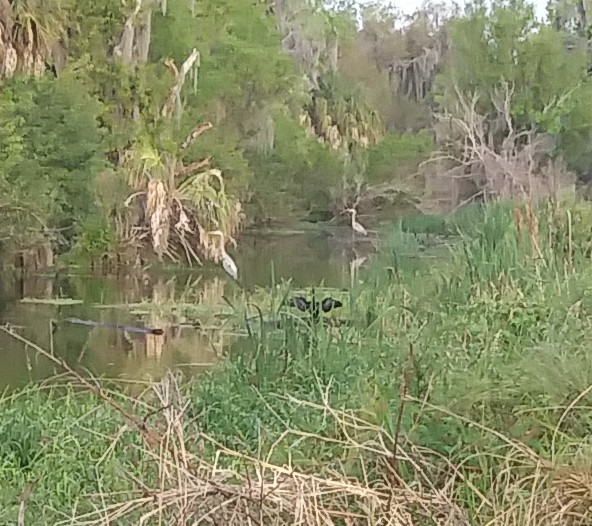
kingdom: Animalia
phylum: Chordata
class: Aves
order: Suliformes
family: Anhingidae
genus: Anhinga
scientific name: Anhinga anhinga
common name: Anhinga
